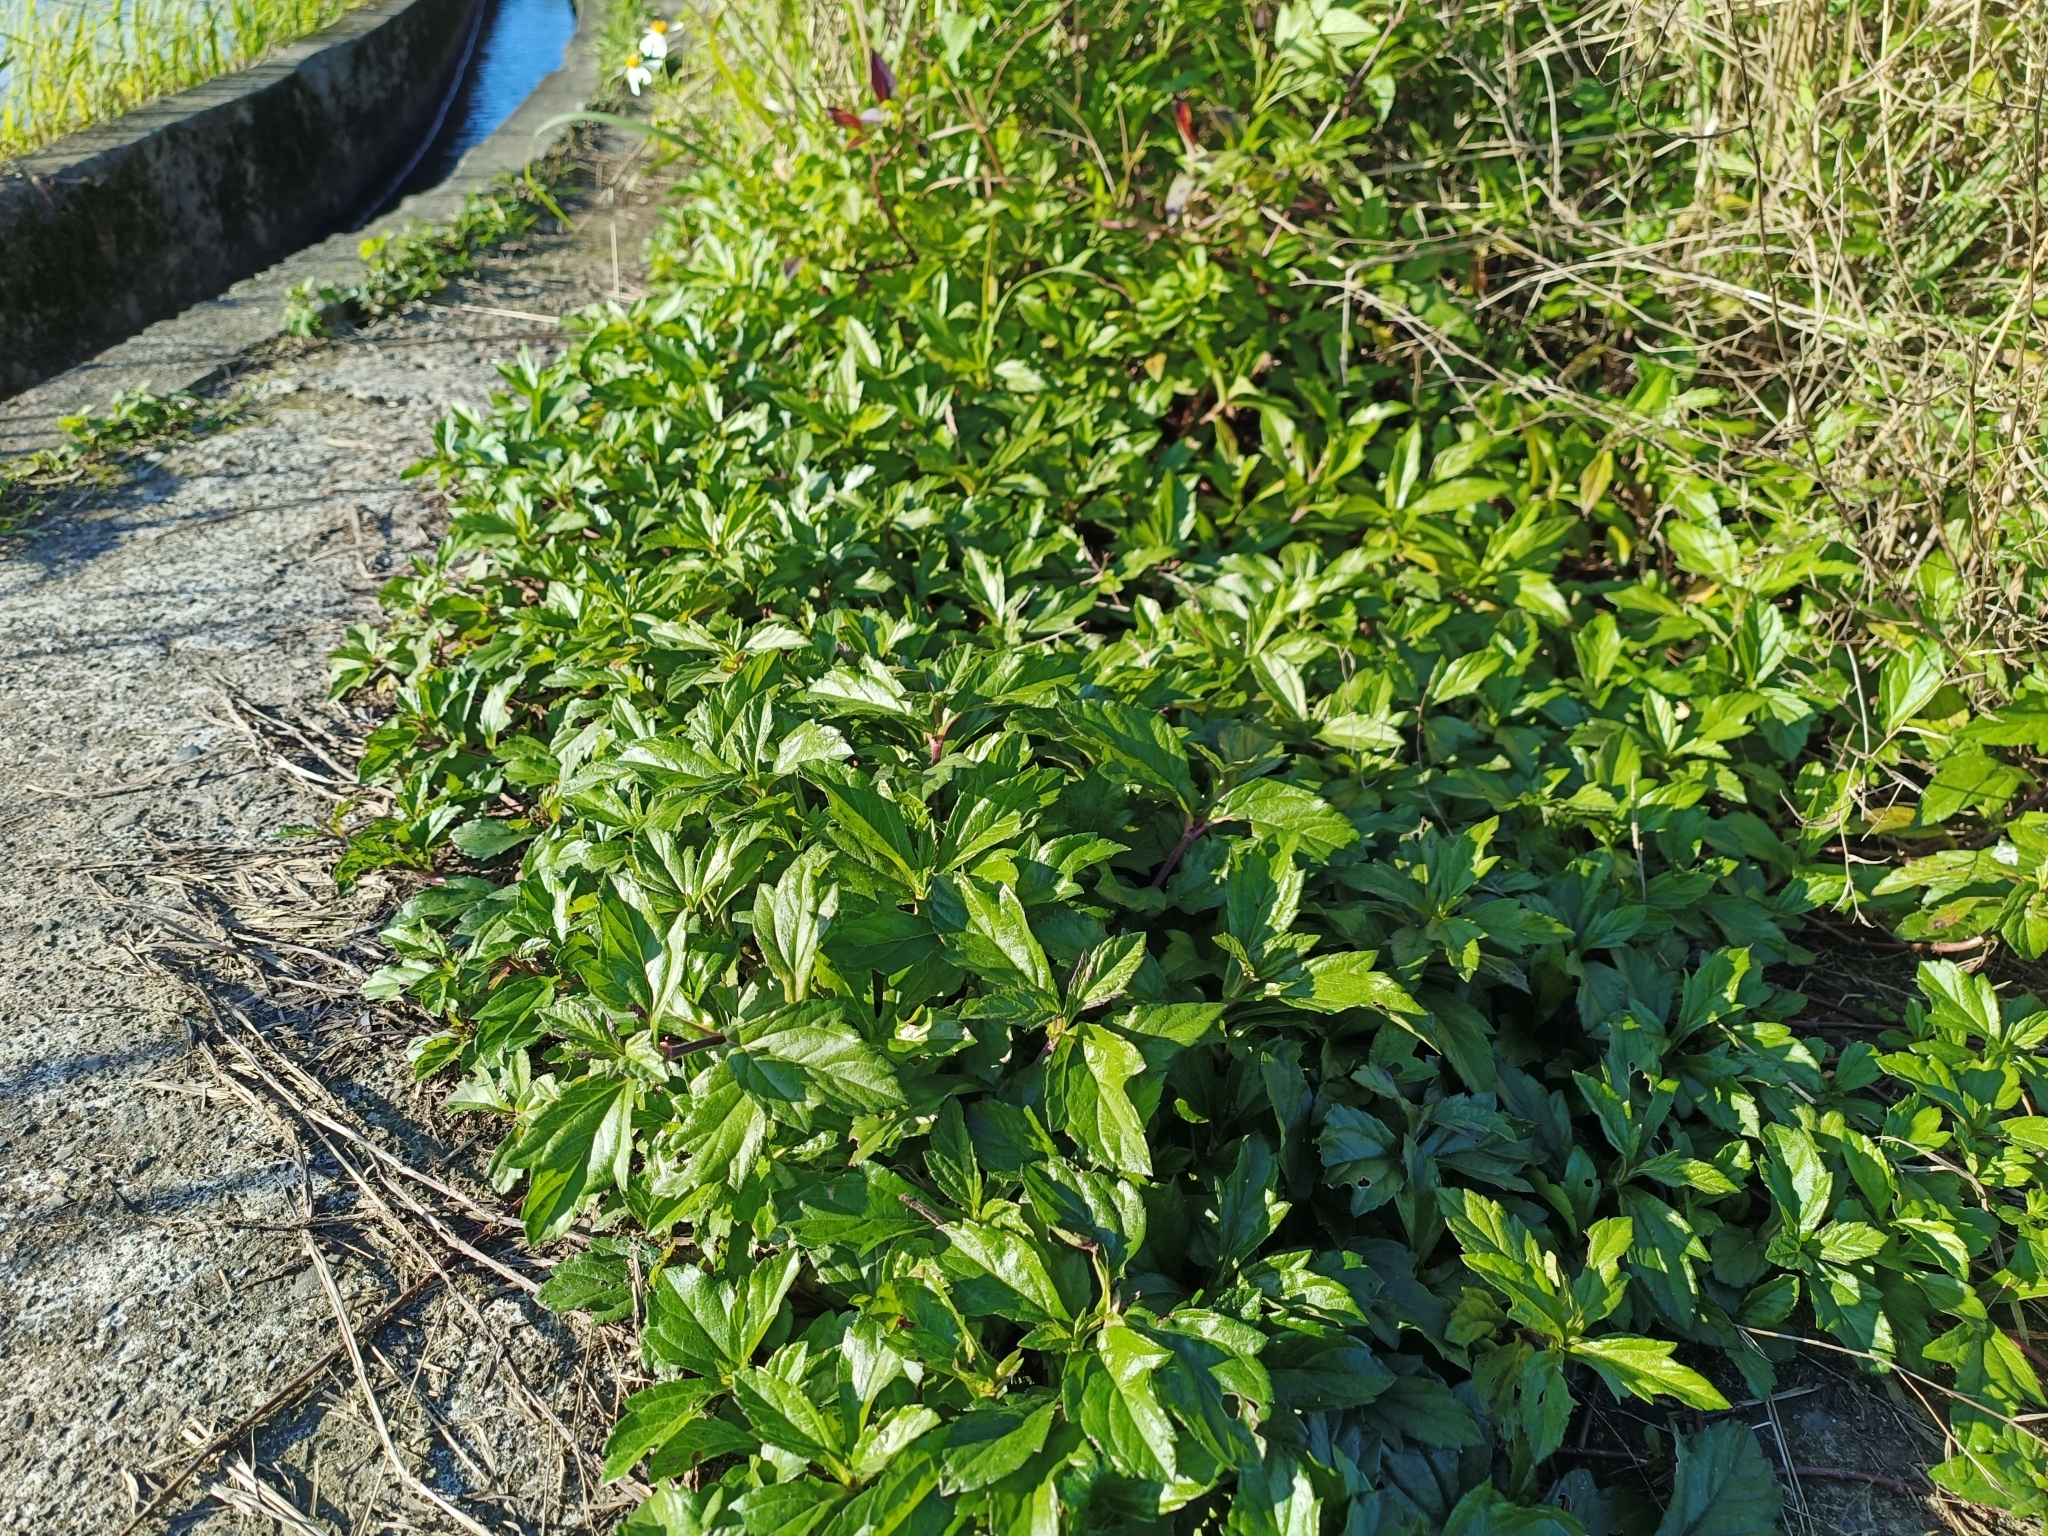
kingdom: Plantae
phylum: Tracheophyta
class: Magnoliopsida
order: Asterales
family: Asteraceae
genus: Sphagneticola
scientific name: Sphagneticola trilobata
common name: Bay biscayne creeping-oxeye
